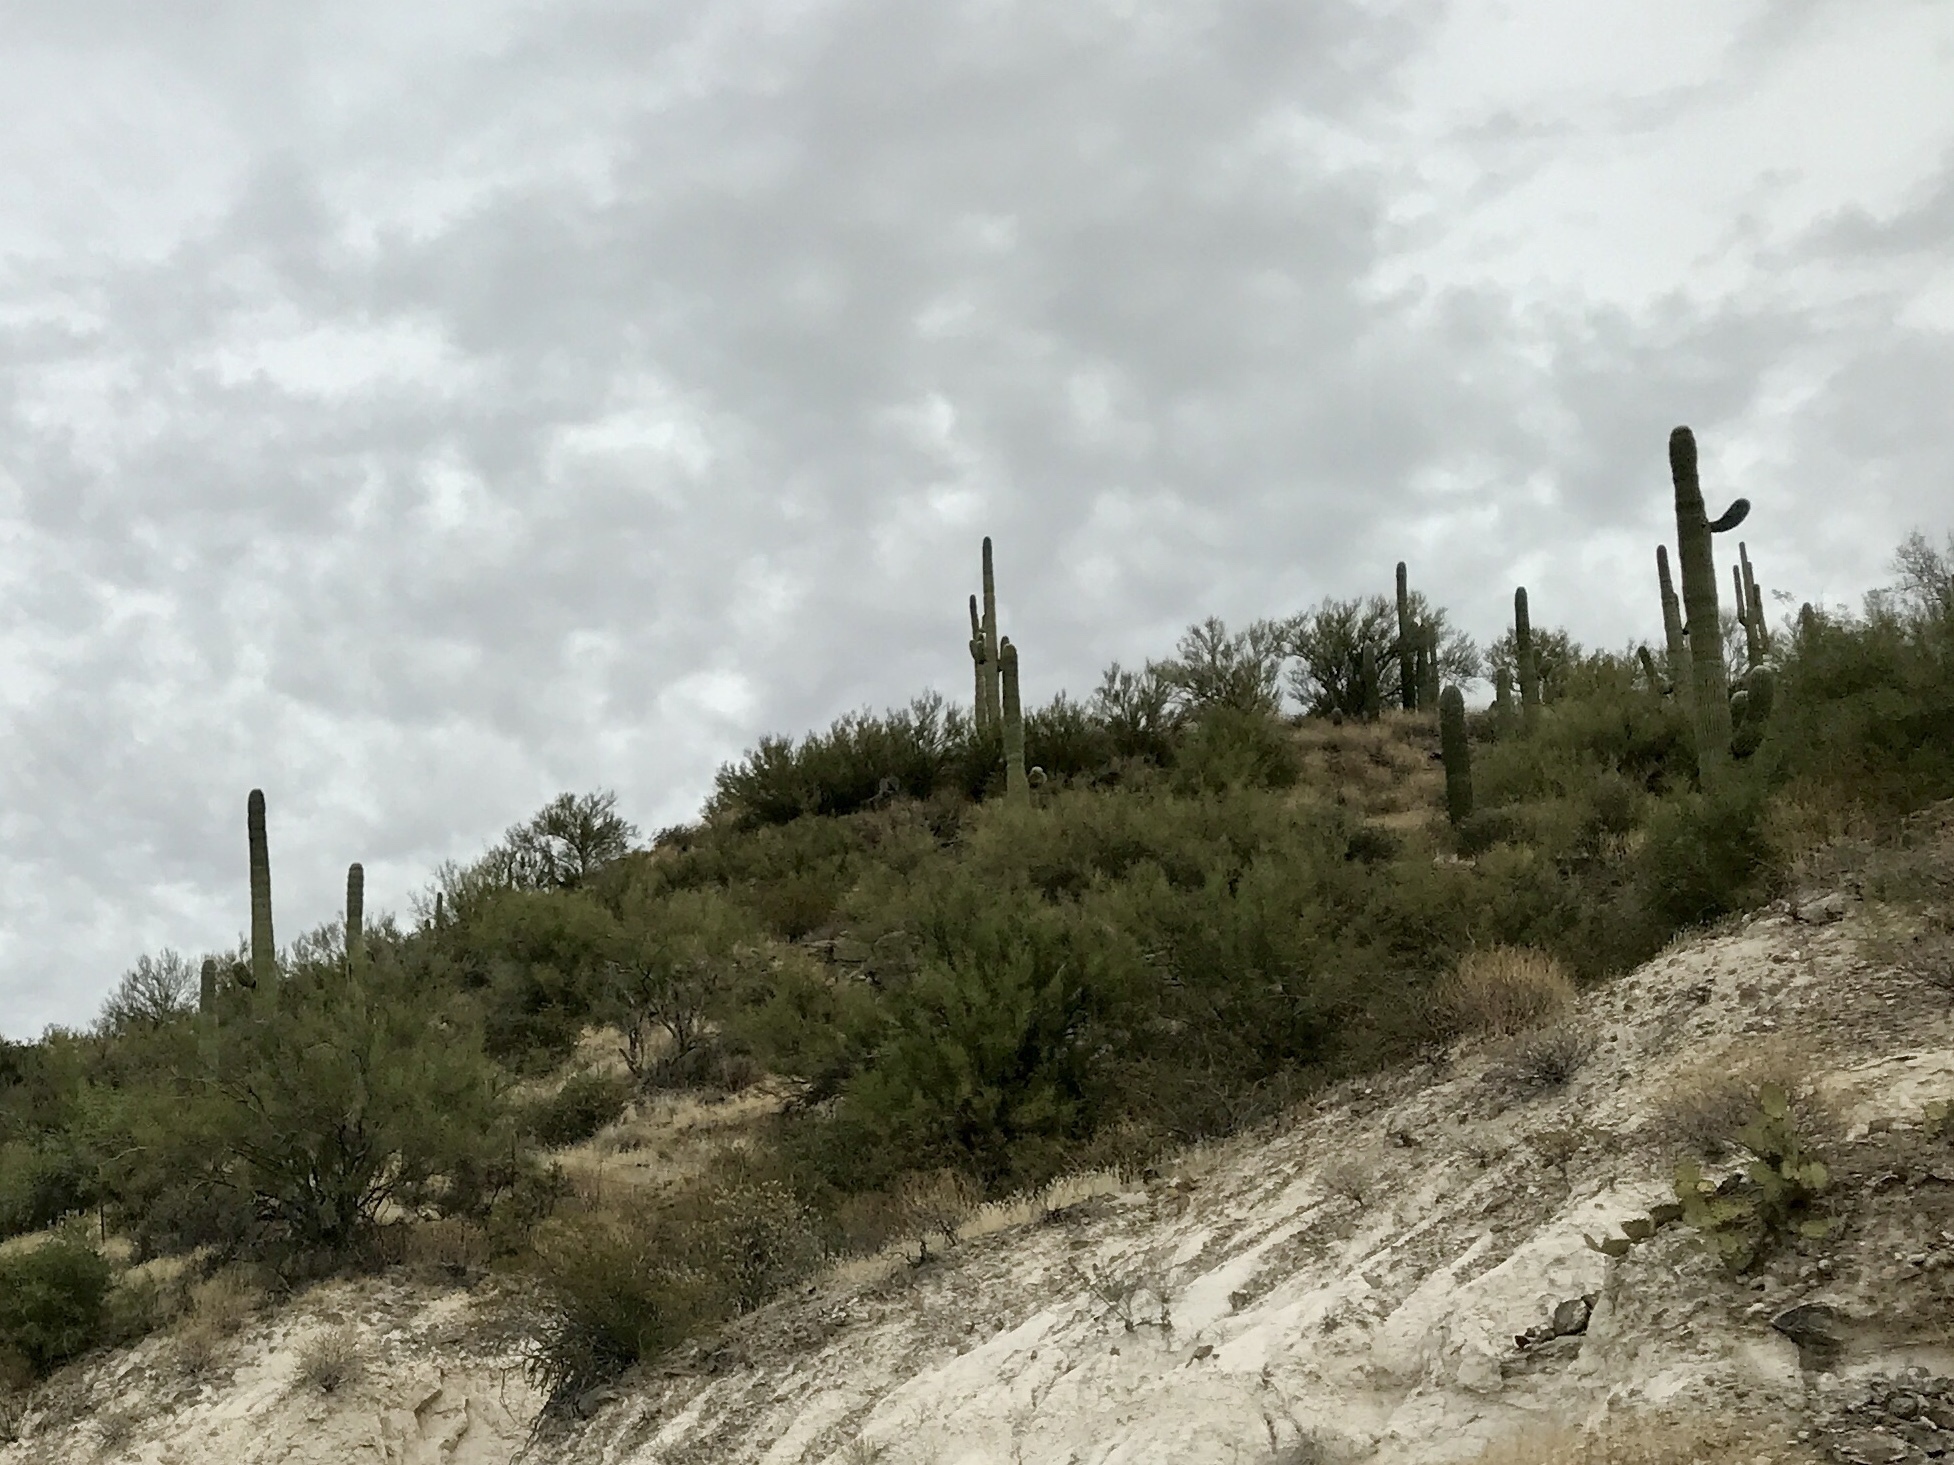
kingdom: Plantae
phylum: Tracheophyta
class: Magnoliopsida
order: Caryophyllales
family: Cactaceae
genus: Carnegiea
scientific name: Carnegiea gigantea
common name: Saguaro
